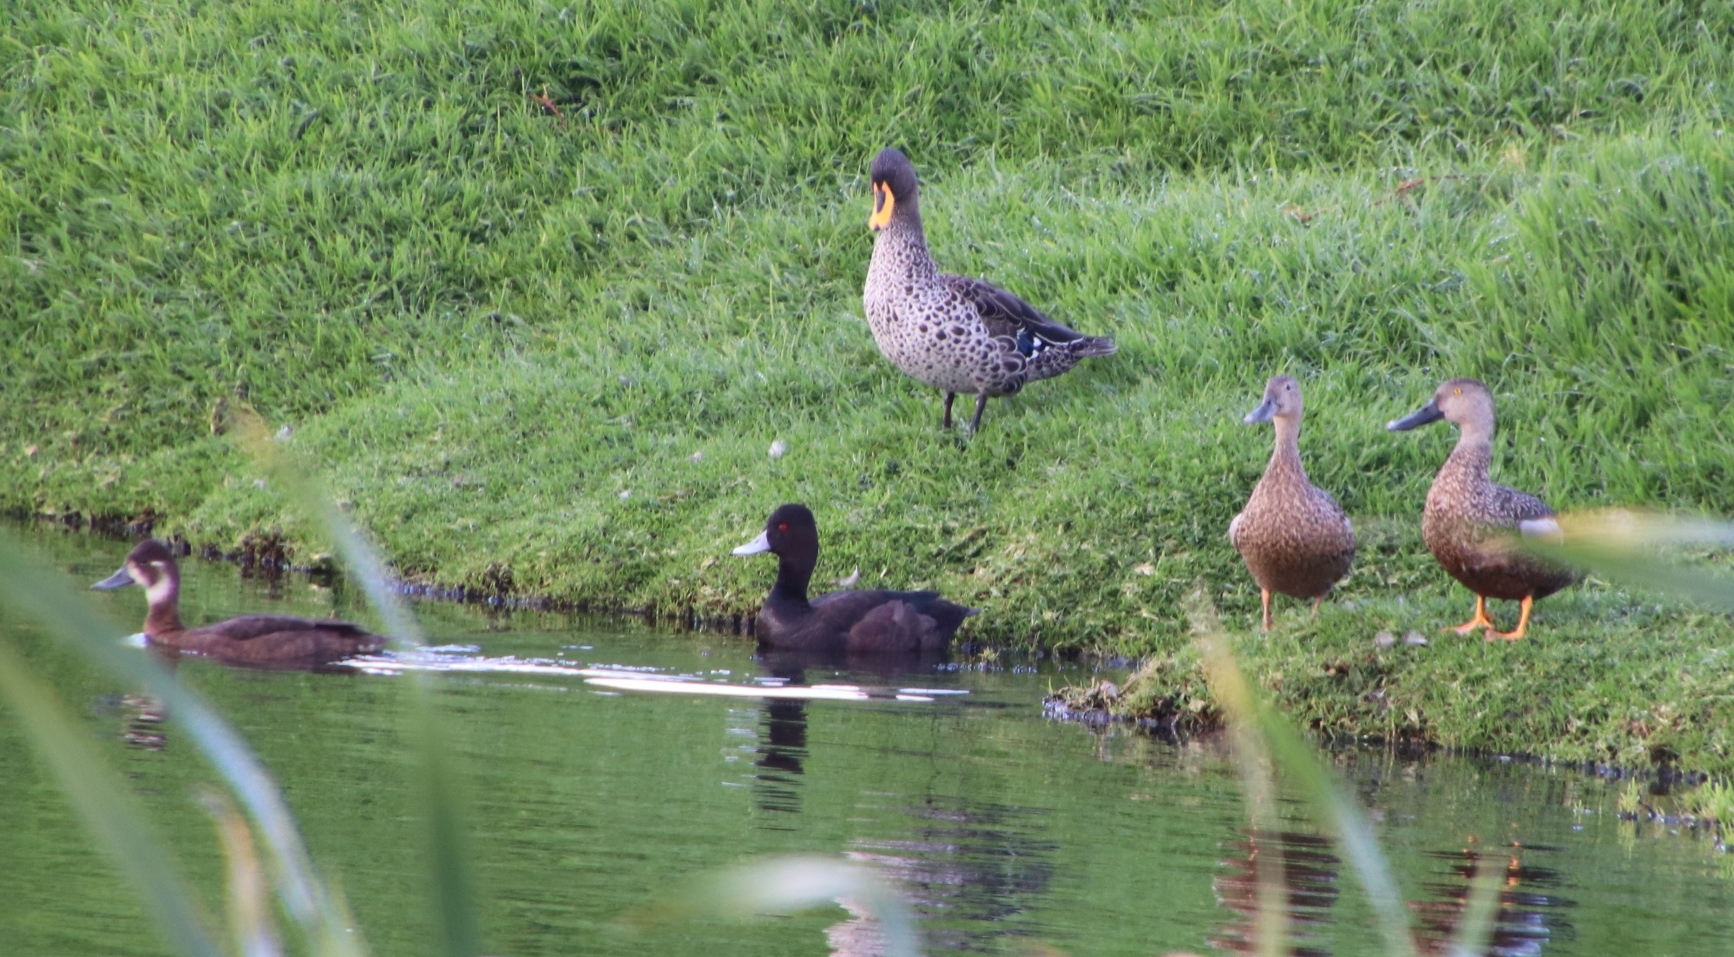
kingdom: Animalia
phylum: Chordata
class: Aves
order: Anseriformes
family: Anatidae
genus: Anas
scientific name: Anas undulata
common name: Yellow-billed duck
